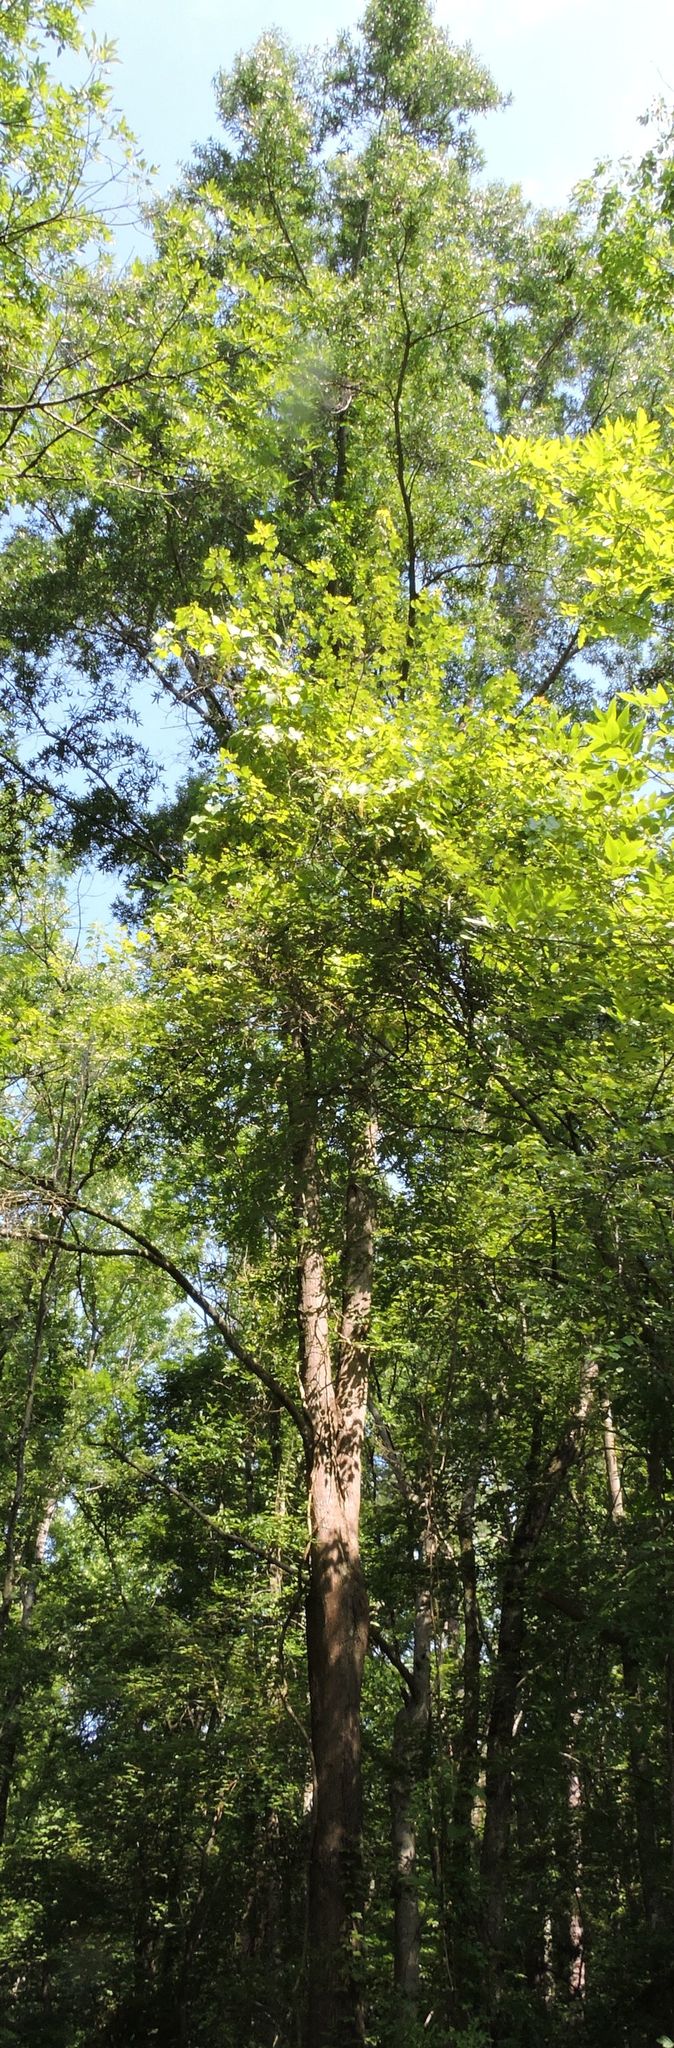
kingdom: Plantae
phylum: Tracheophyta
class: Magnoliopsida
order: Fagales
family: Fagaceae
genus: Quercus
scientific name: Quercus phellos
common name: Willow oak
